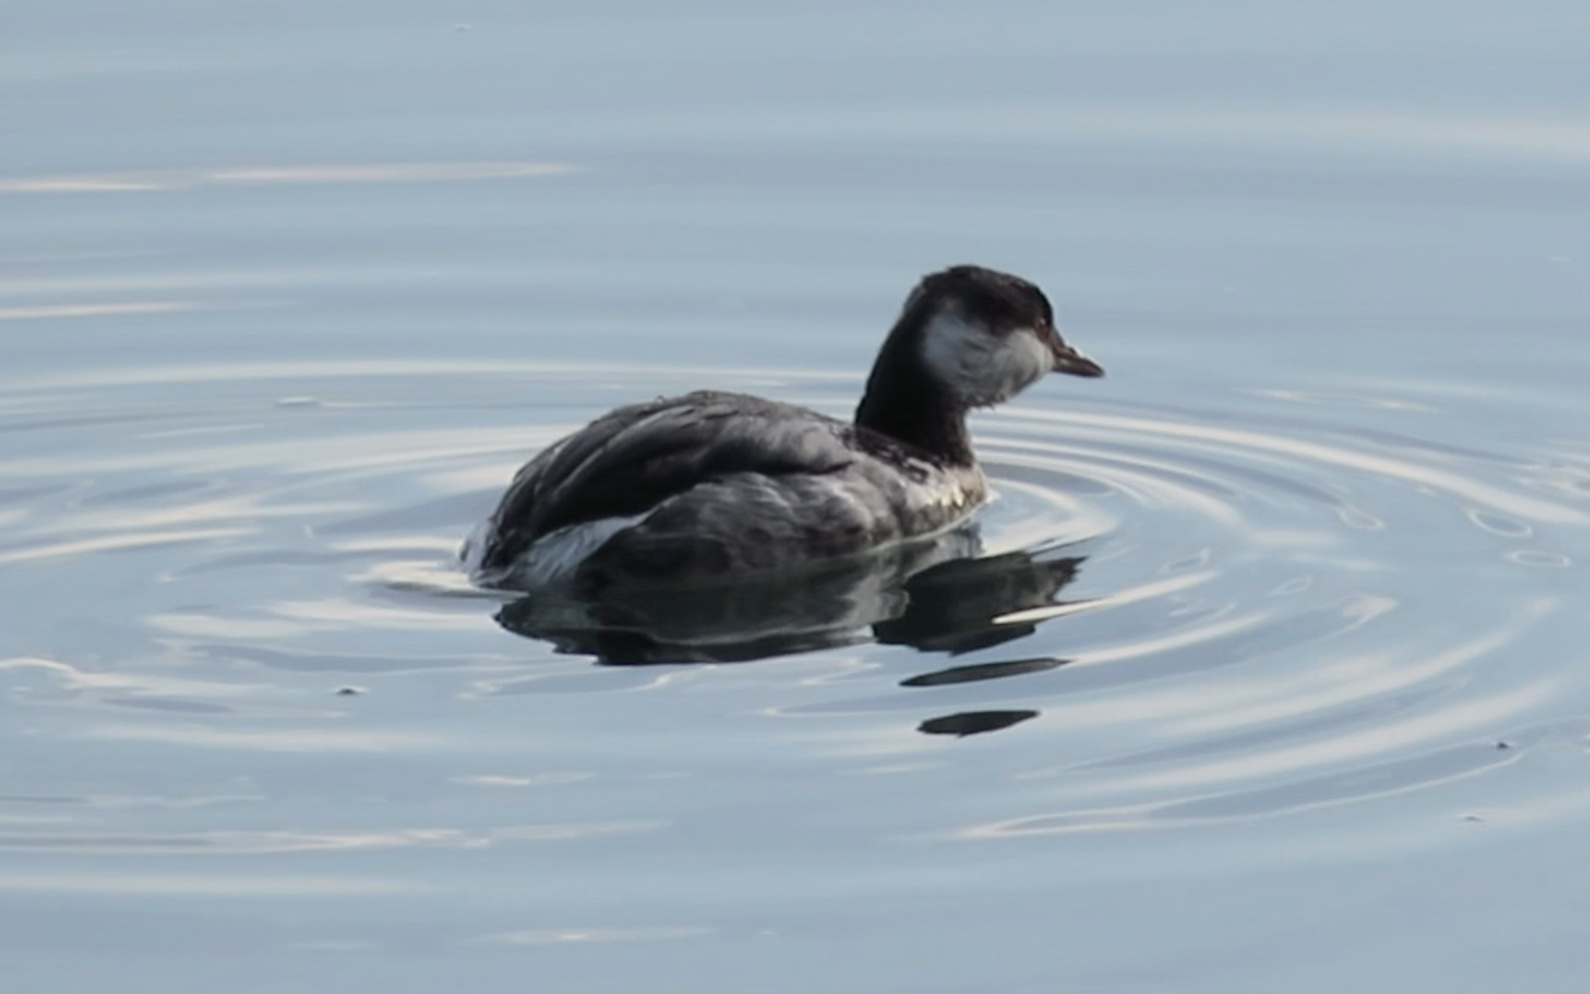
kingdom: Animalia
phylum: Chordata
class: Aves
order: Podicipediformes
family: Podicipedidae
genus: Podiceps
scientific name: Podiceps auritus
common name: Horned grebe
